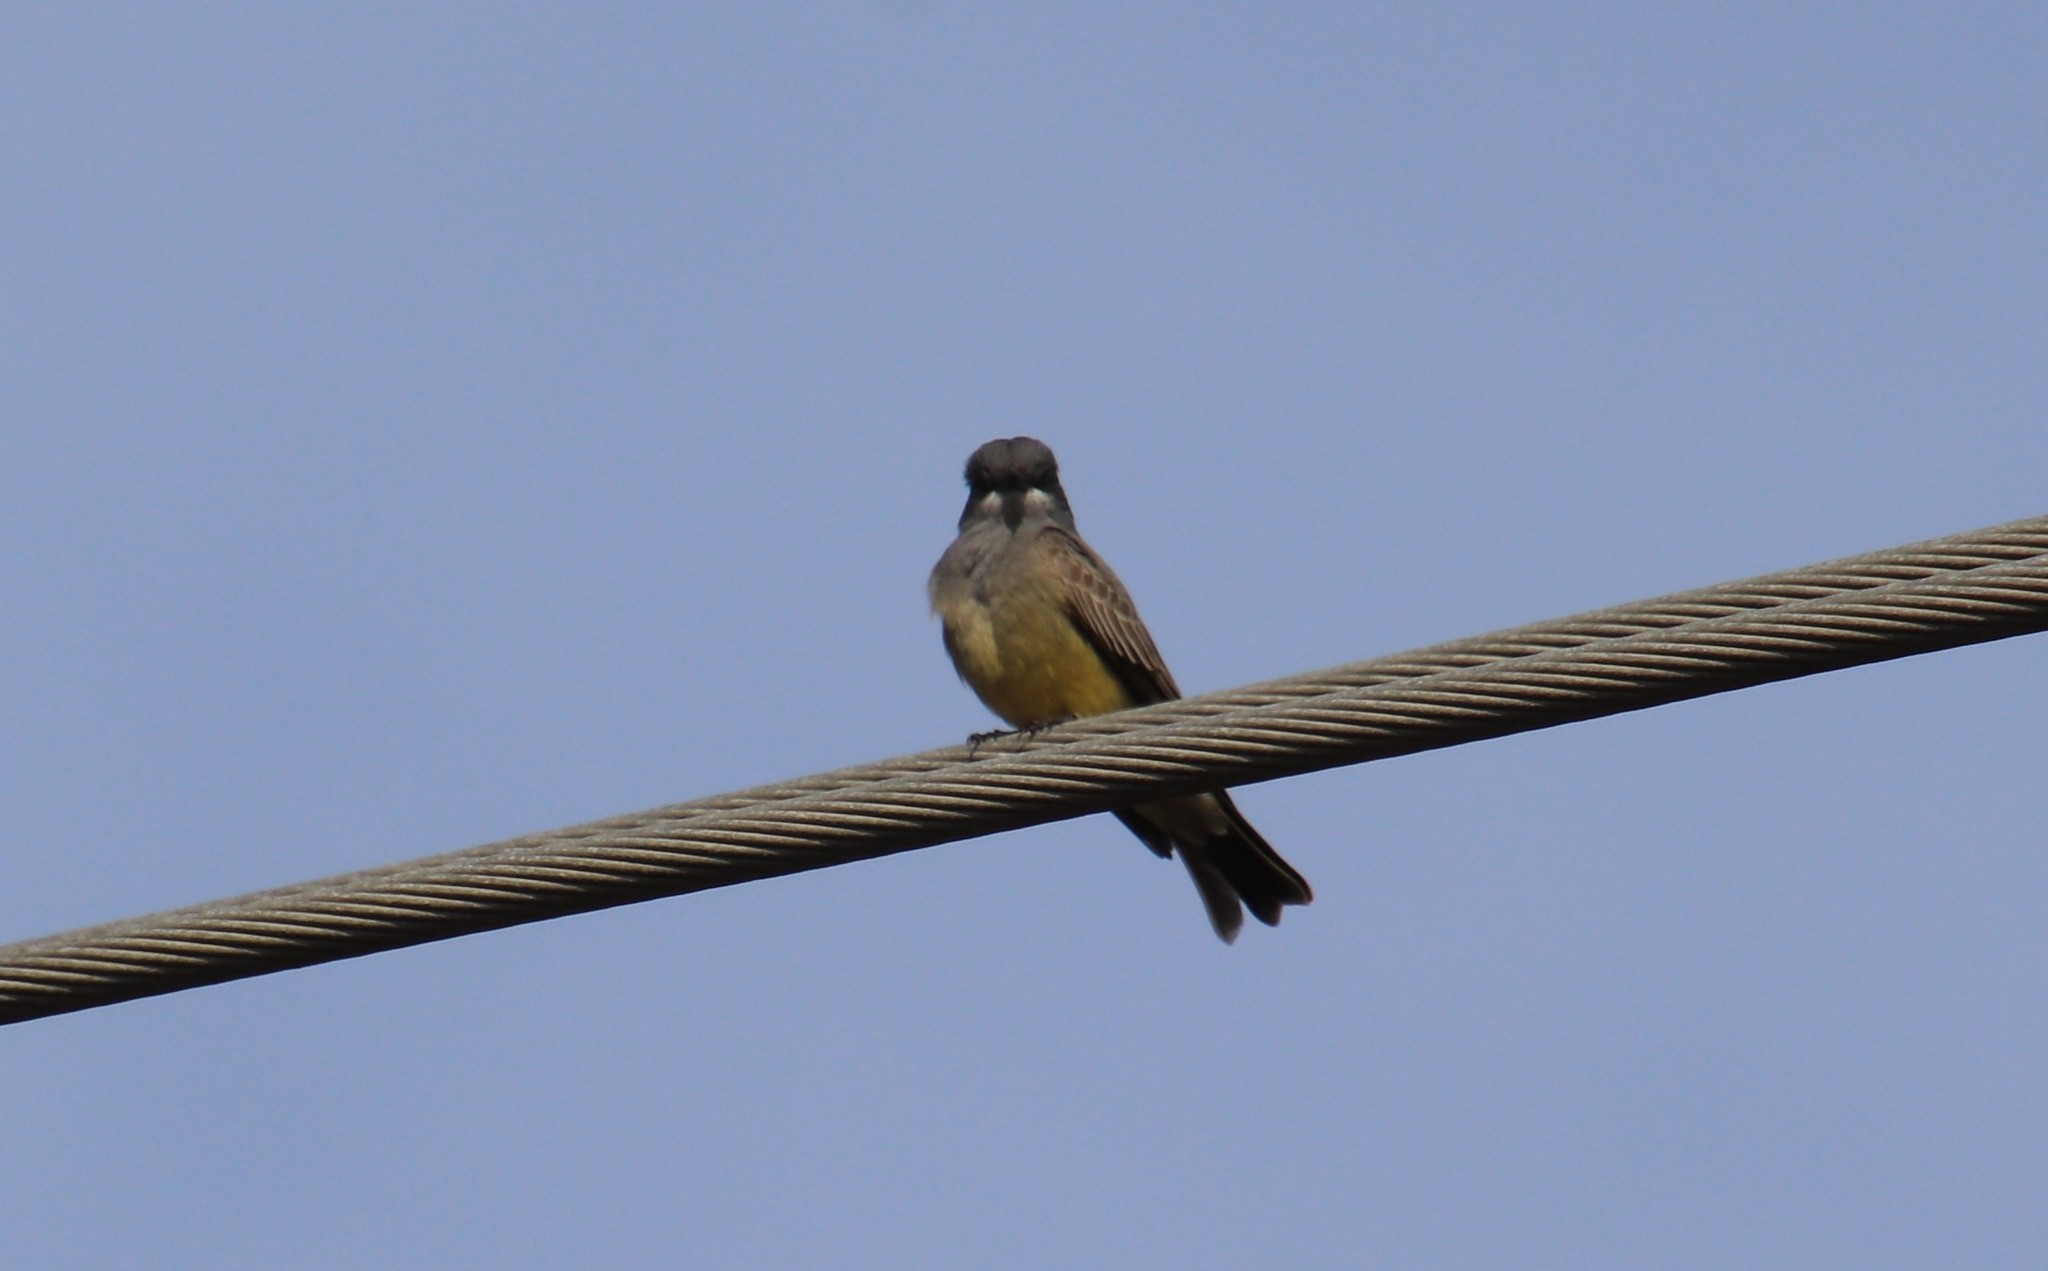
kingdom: Animalia
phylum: Chordata
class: Aves
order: Passeriformes
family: Tyrannidae
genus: Tyrannus
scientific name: Tyrannus vociferans
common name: Cassin's kingbird
